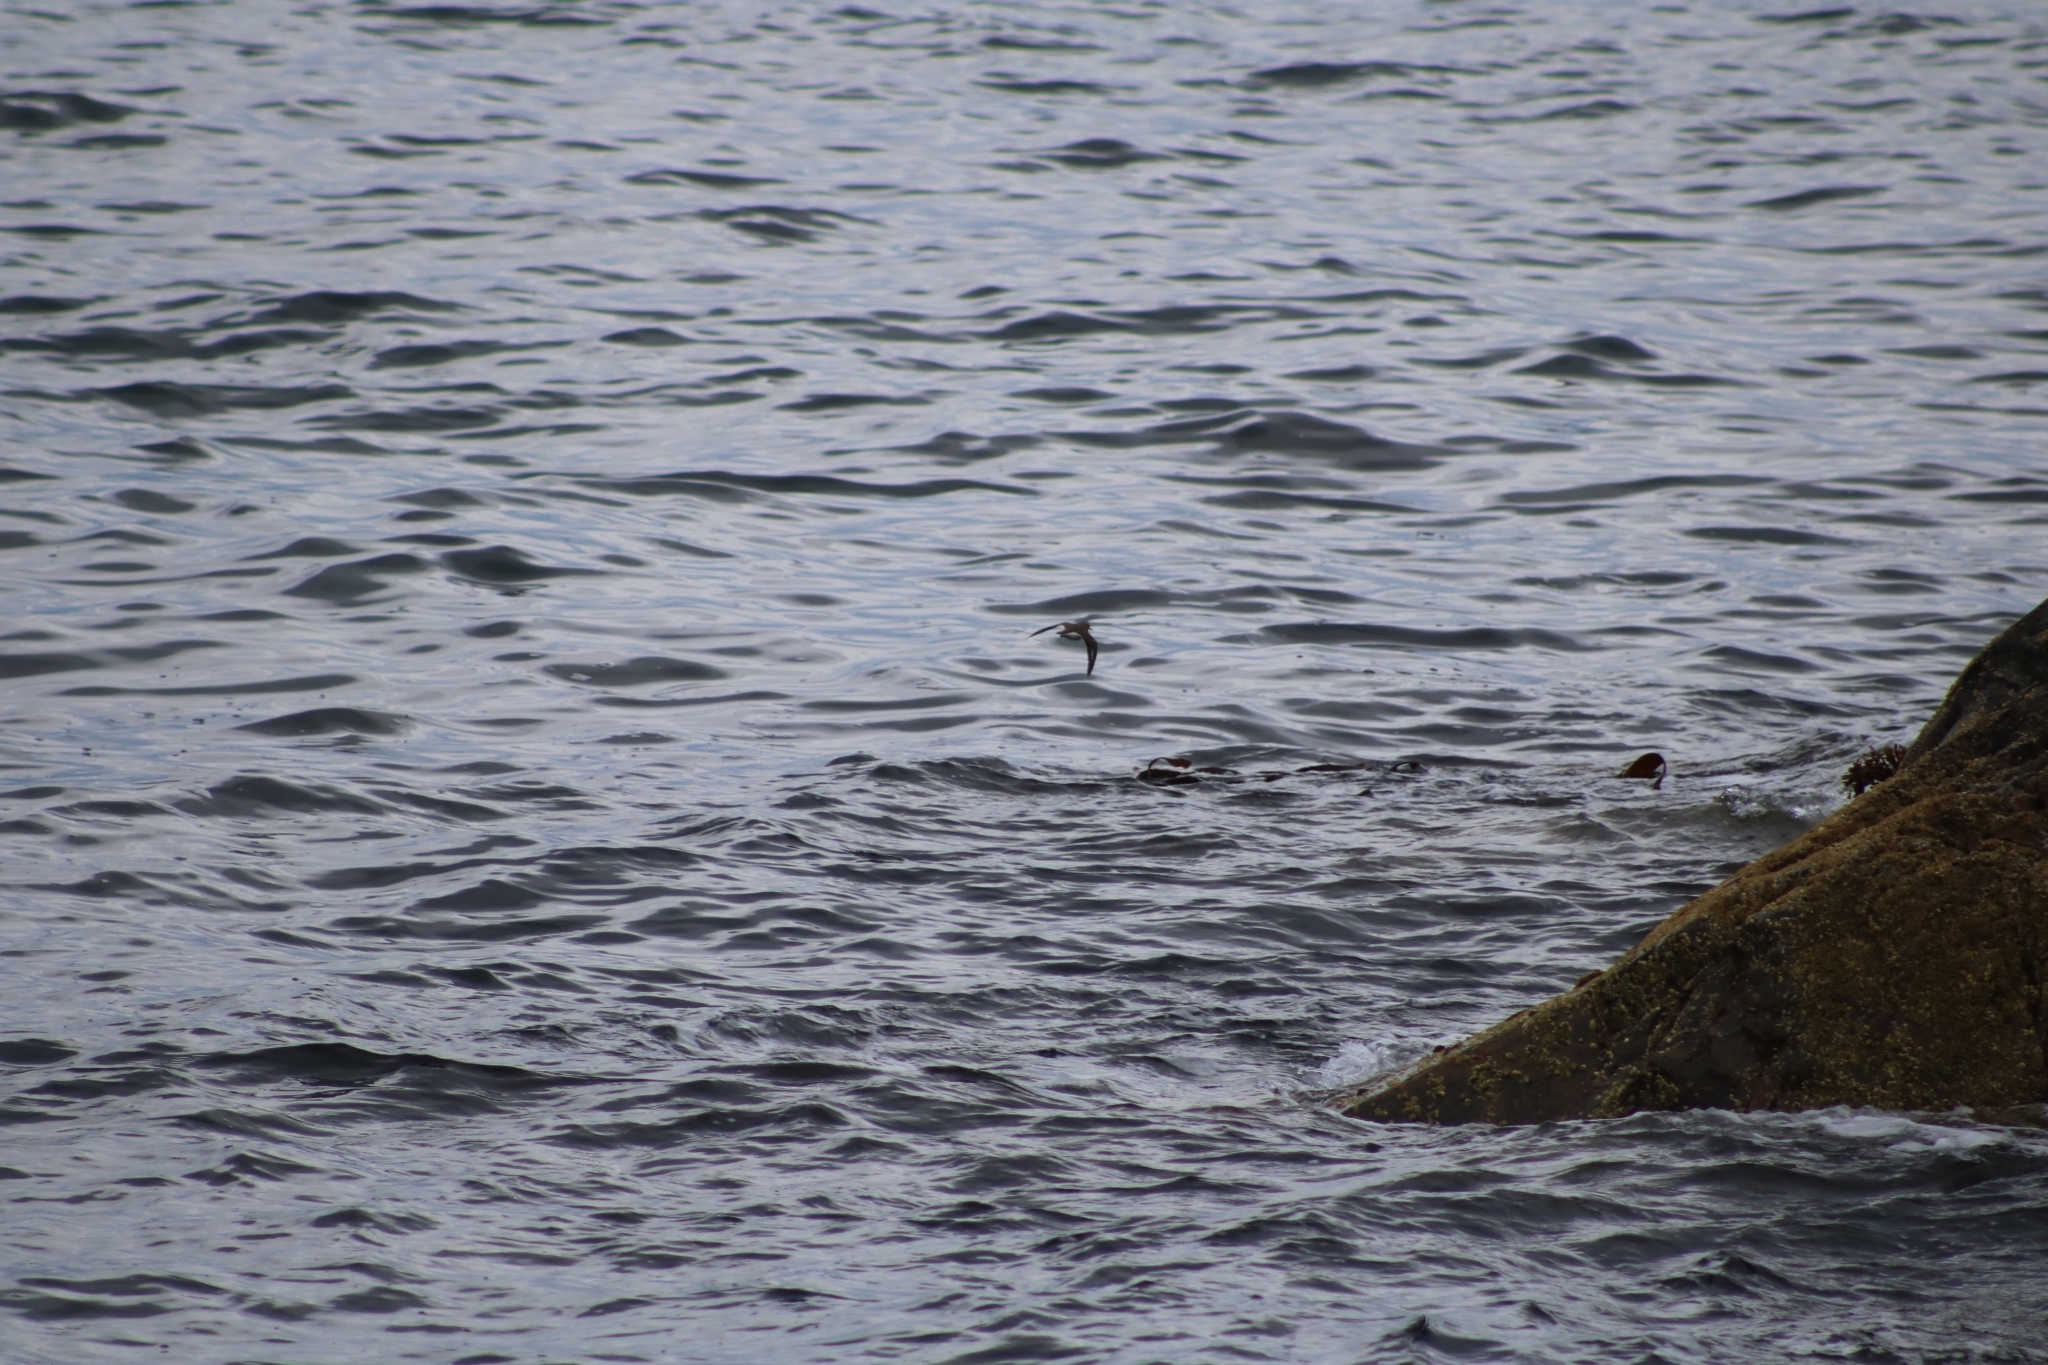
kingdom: Animalia
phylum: Chordata
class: Aves
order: Charadriiformes
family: Scolopacidae
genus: Actitis
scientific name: Actitis hypoleucos
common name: Common sandpiper
